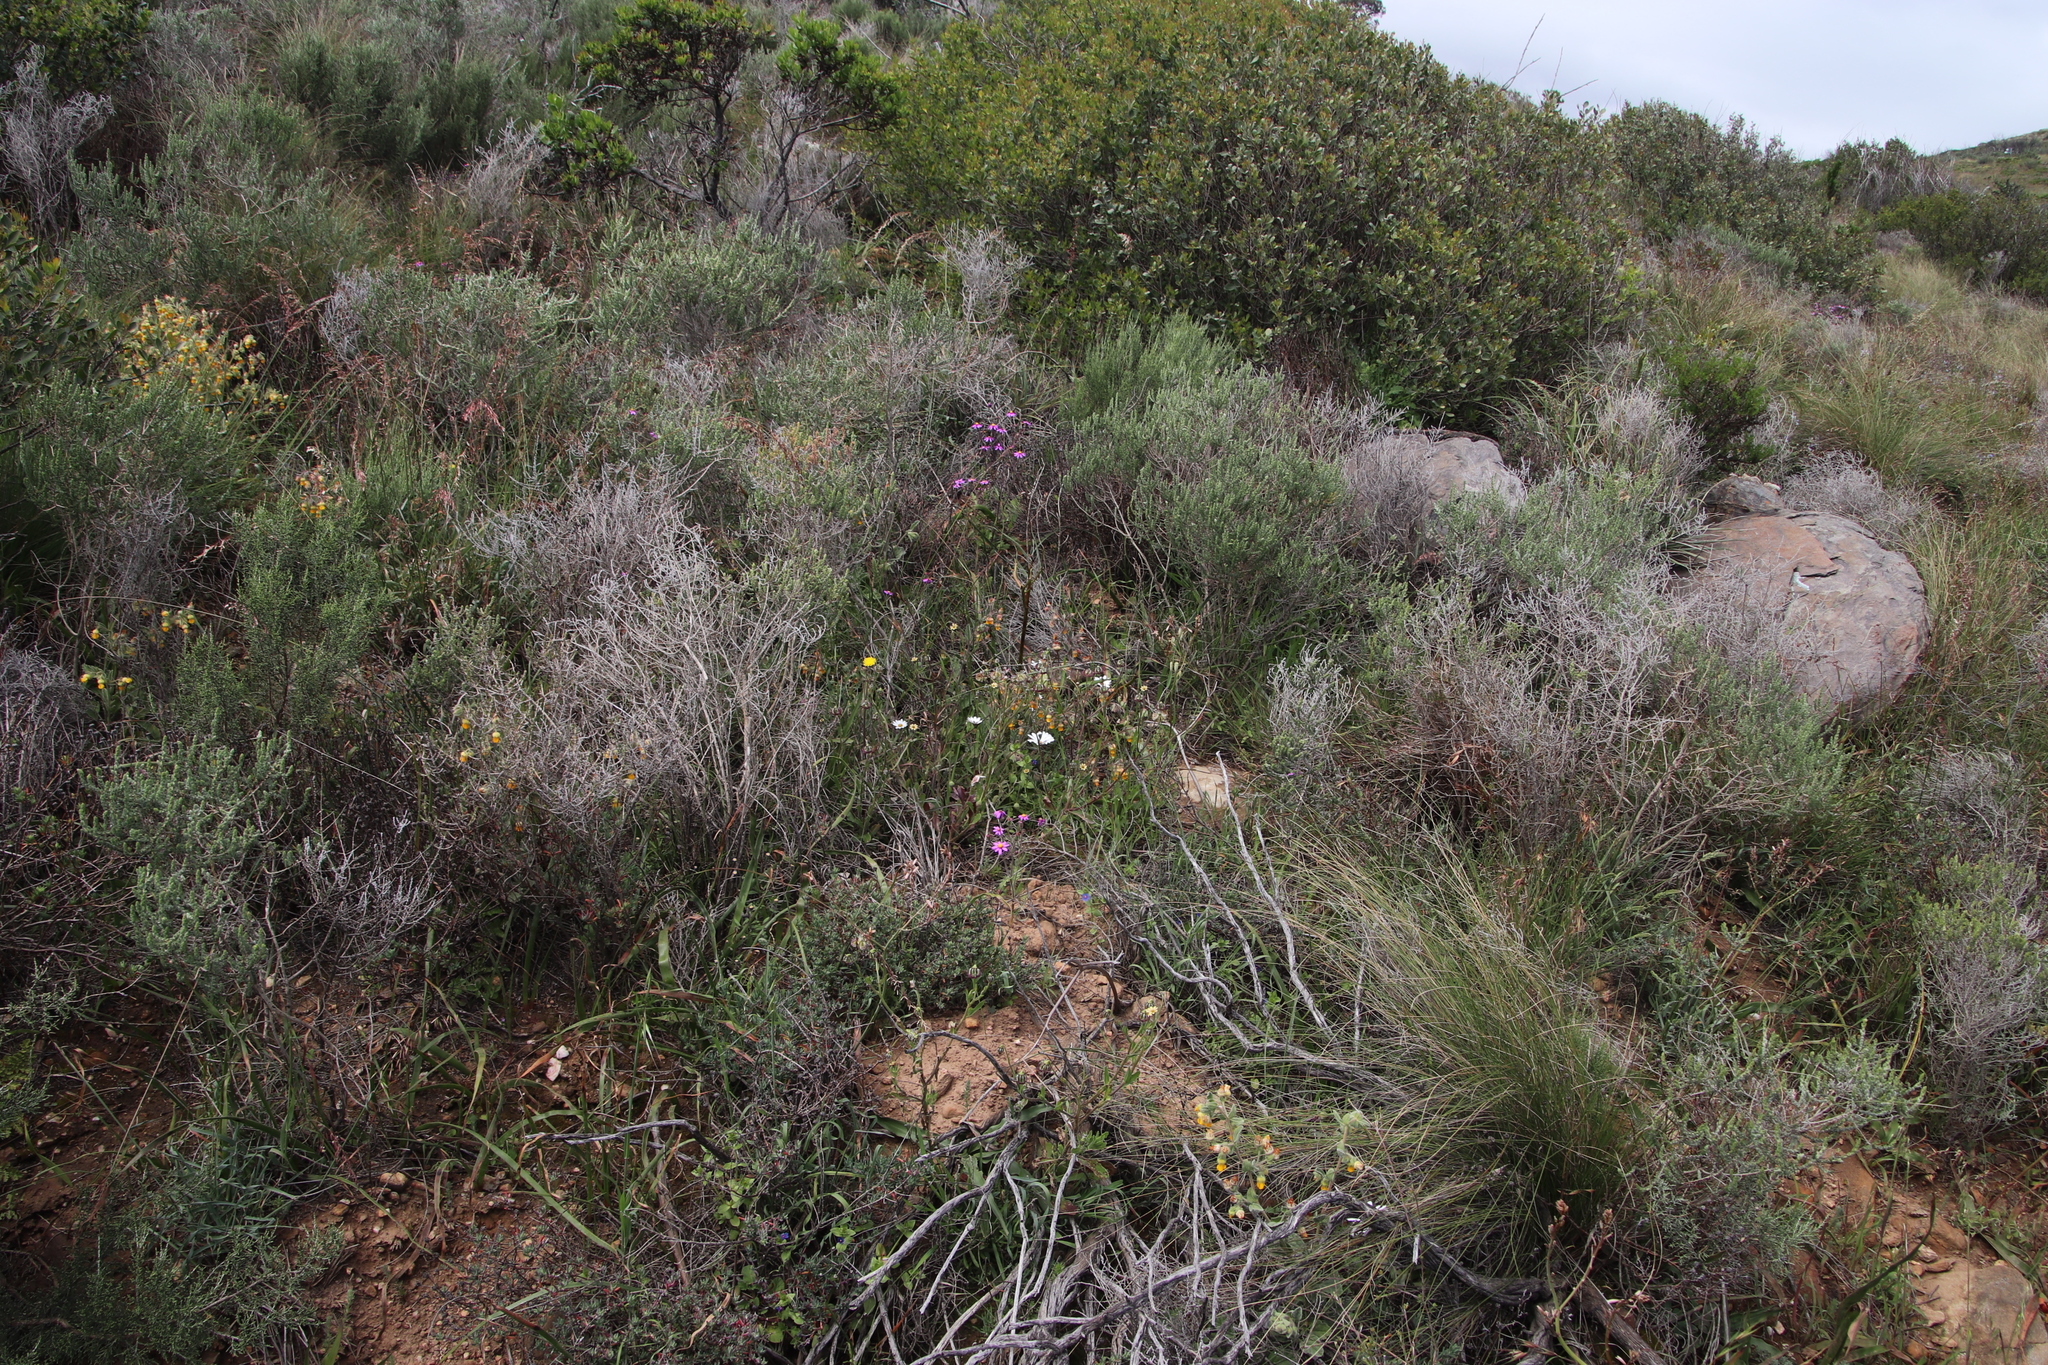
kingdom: Plantae
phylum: Tracheophyta
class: Magnoliopsida
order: Asterales
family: Asteraceae
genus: Osteospermum
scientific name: Osteospermum monstrosum
